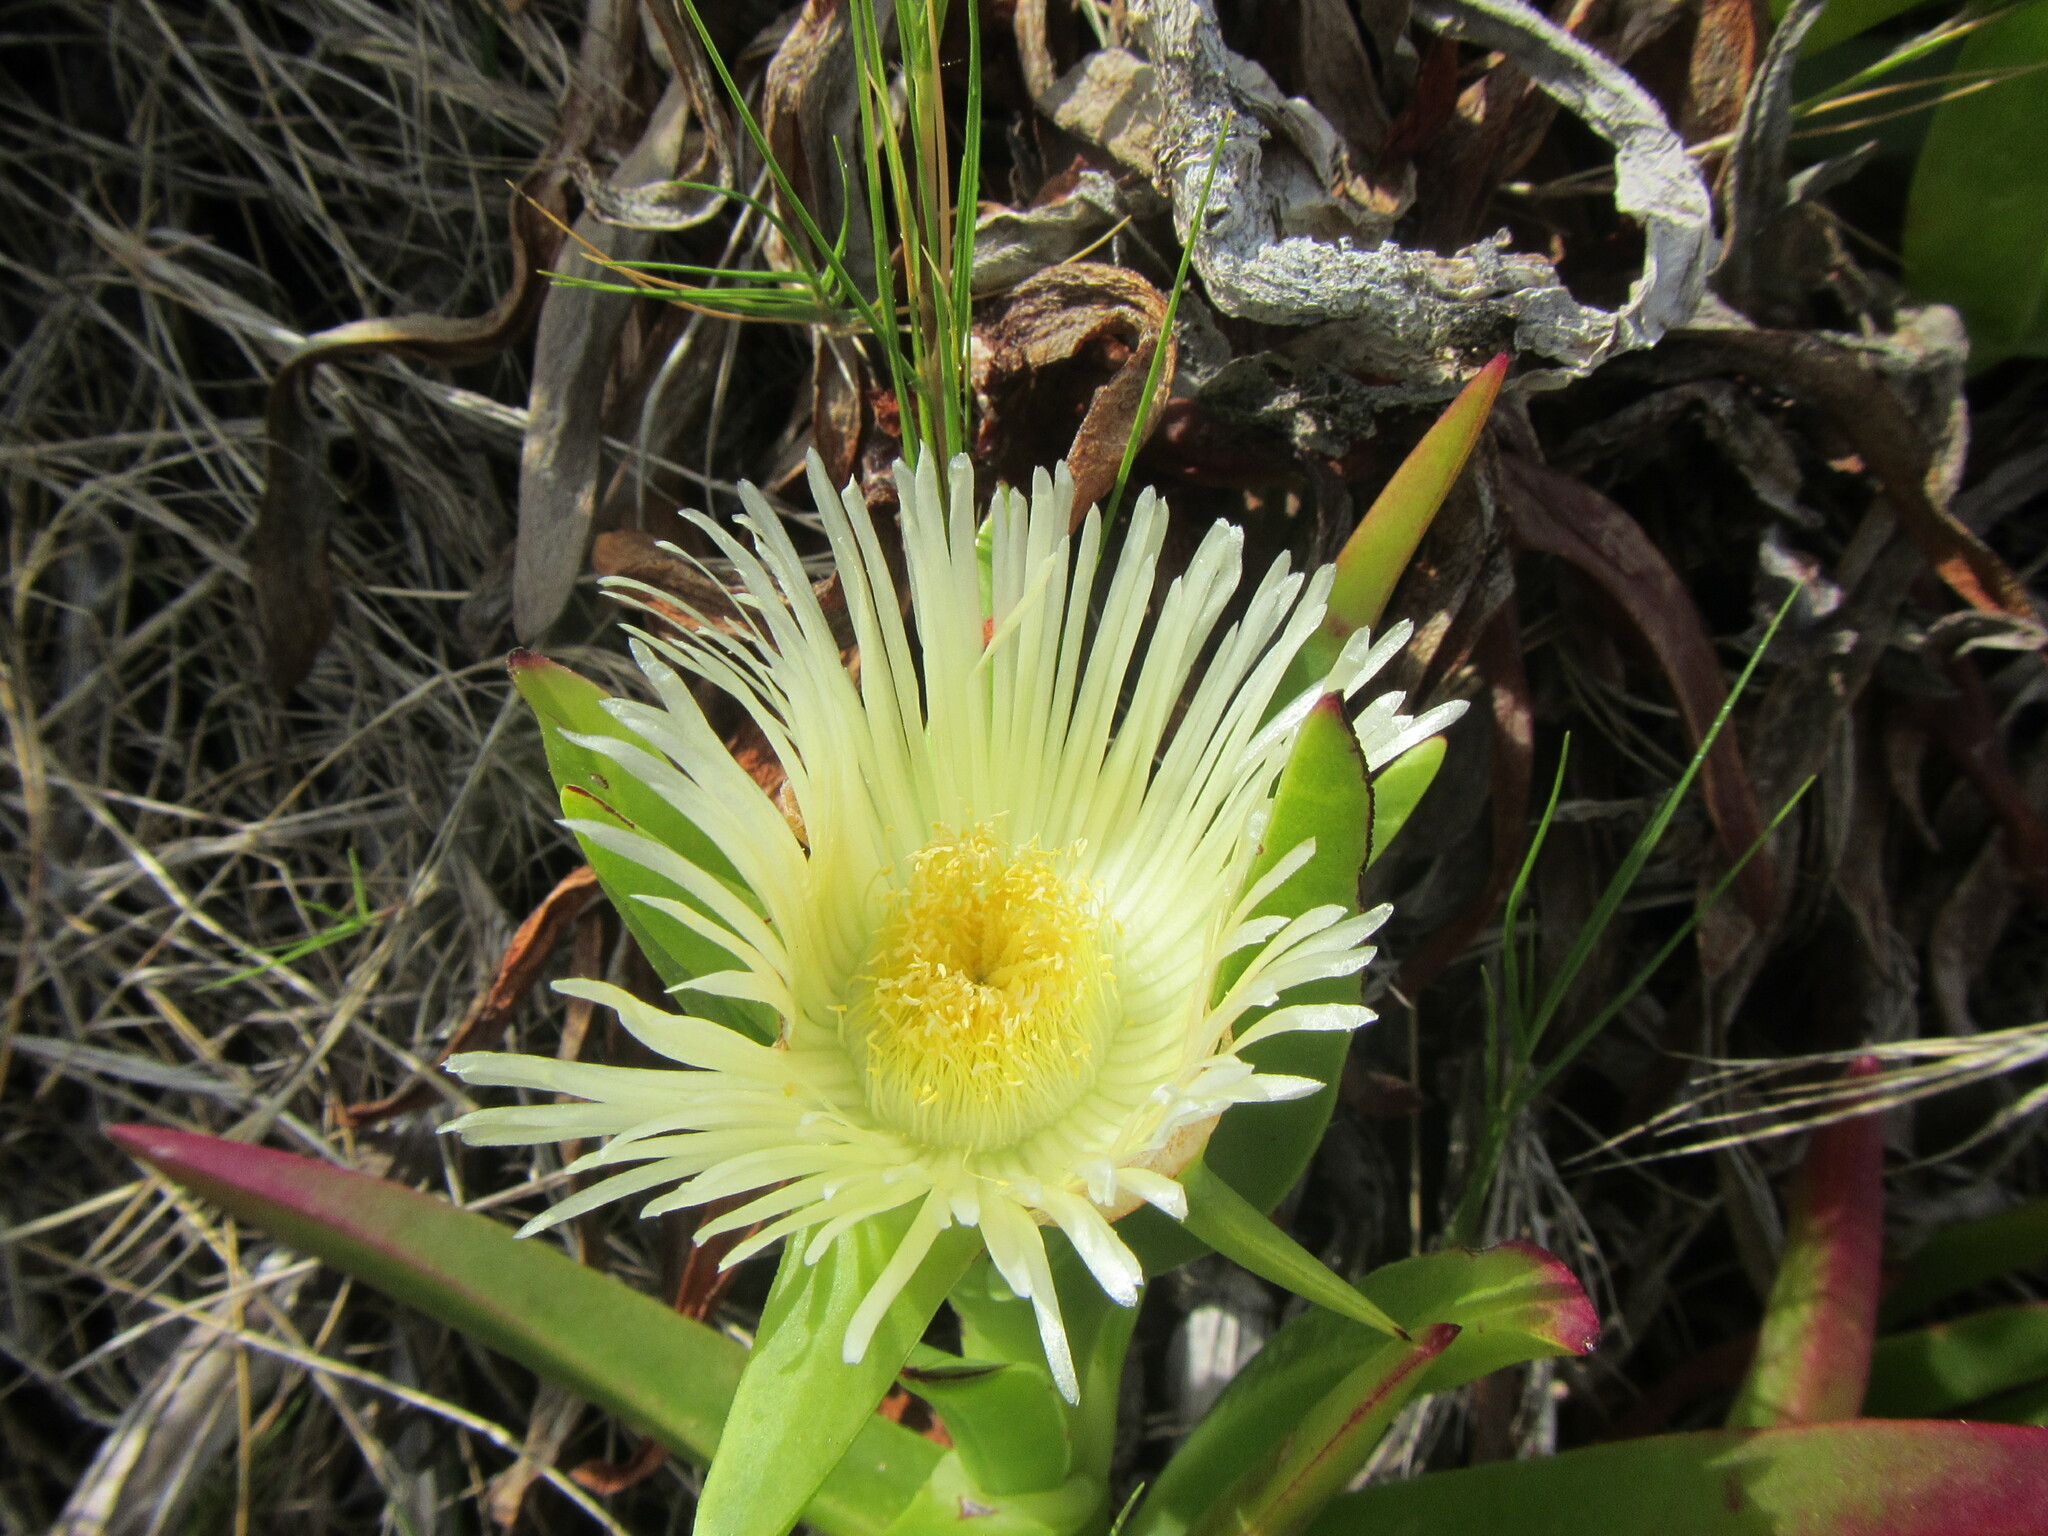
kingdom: Plantae
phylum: Tracheophyta
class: Magnoliopsida
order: Caryophyllales
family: Aizoaceae
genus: Carpobrotus
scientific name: Carpobrotus edulis
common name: Hottentot-fig
